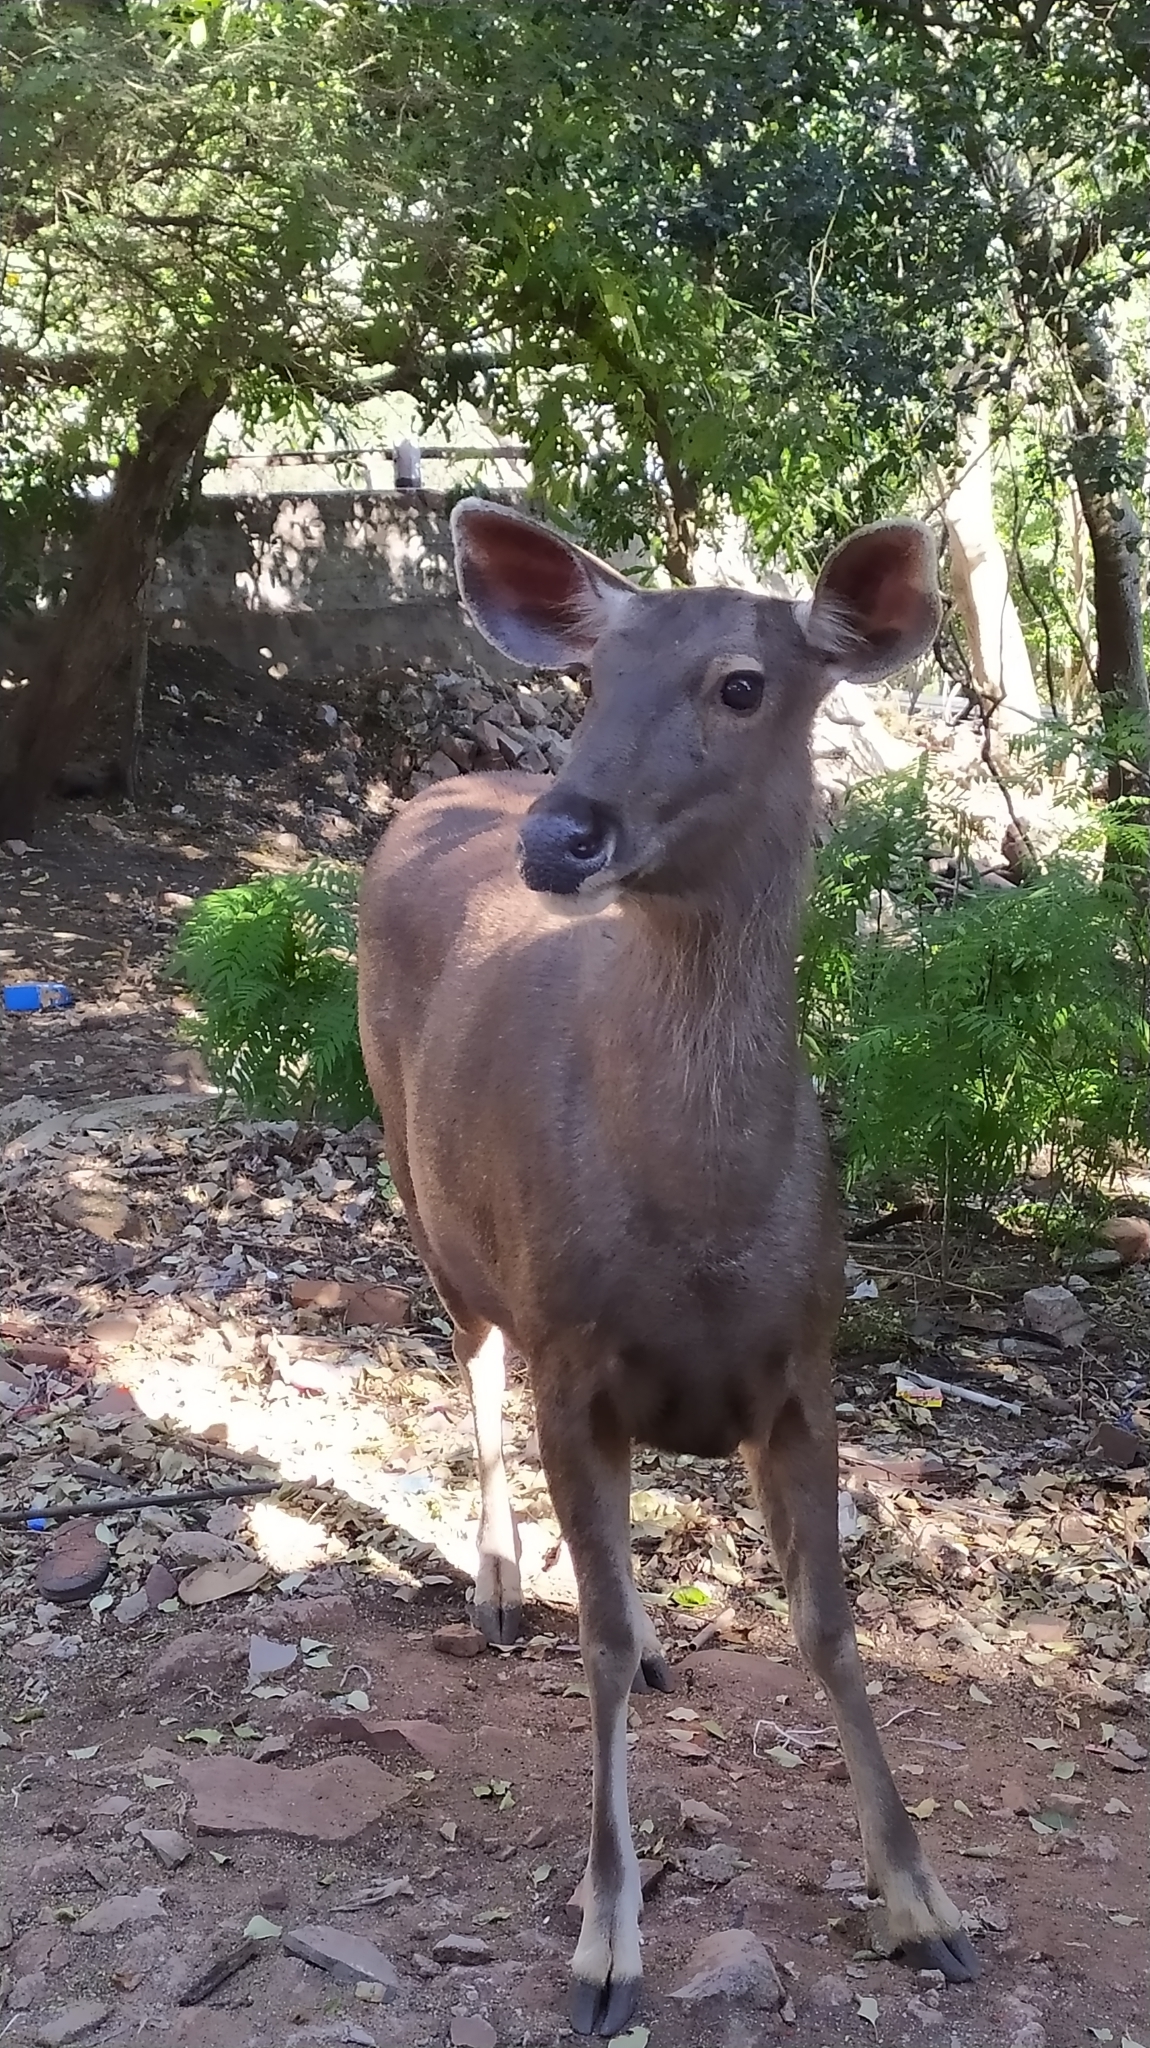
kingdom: Animalia
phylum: Chordata
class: Mammalia
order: Artiodactyla
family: Cervidae
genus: Rusa
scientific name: Rusa unicolor
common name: Sambar
